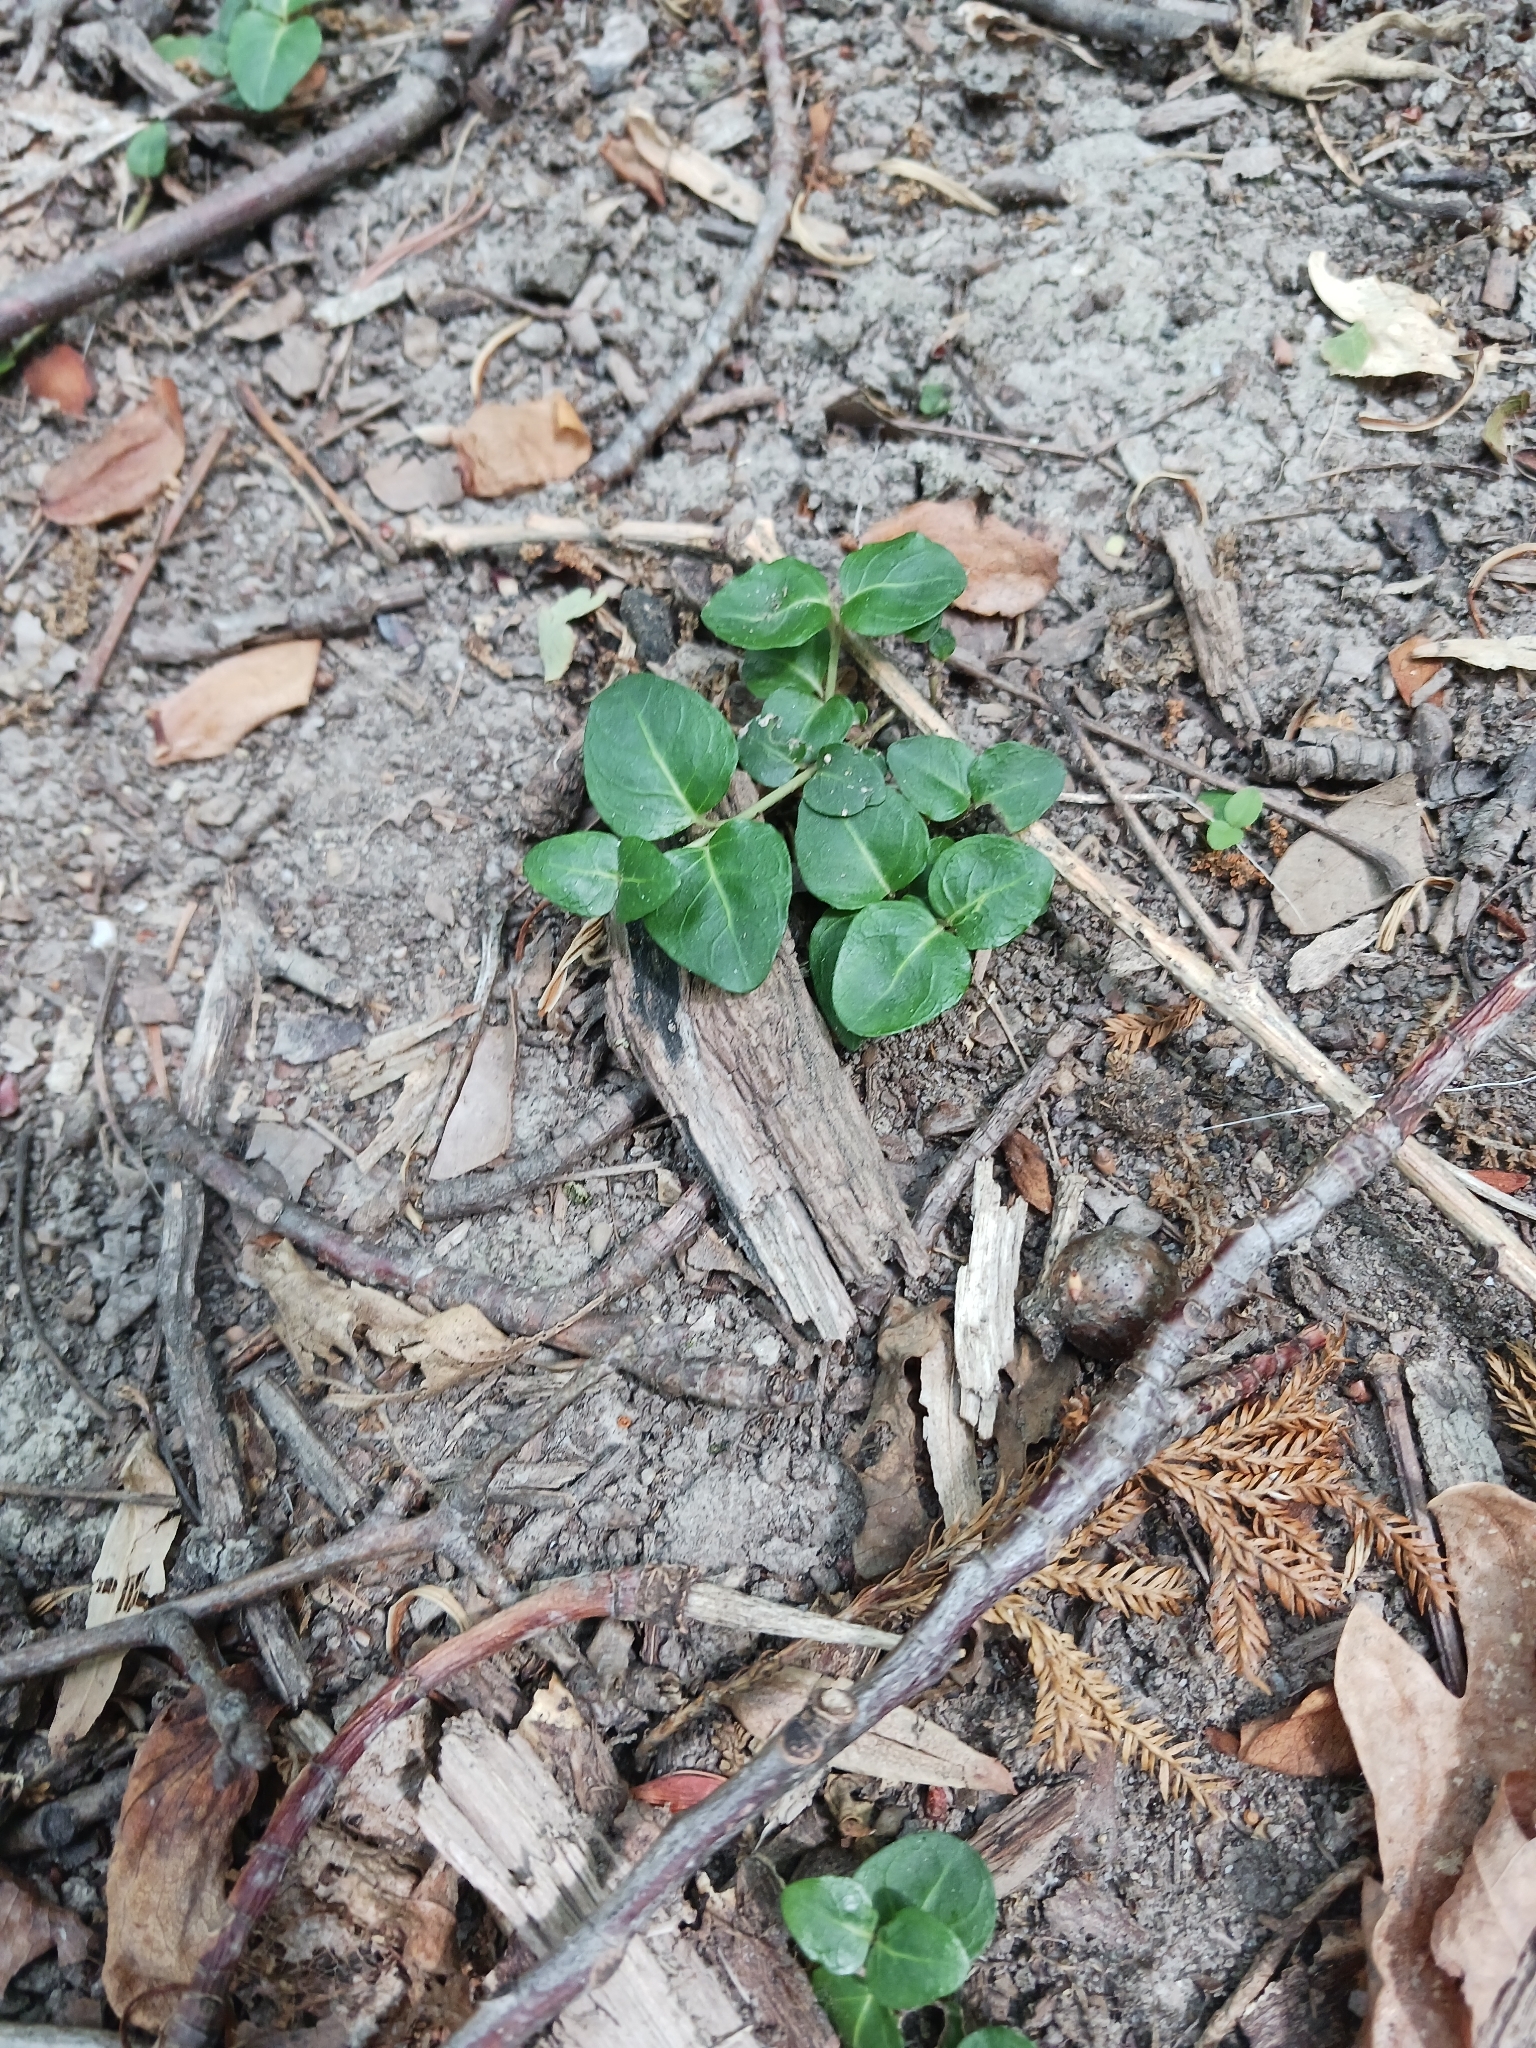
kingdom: Plantae
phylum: Tracheophyta
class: Magnoliopsida
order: Gentianales
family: Rubiaceae
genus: Mitchella
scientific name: Mitchella repens
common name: Partridge-berry
